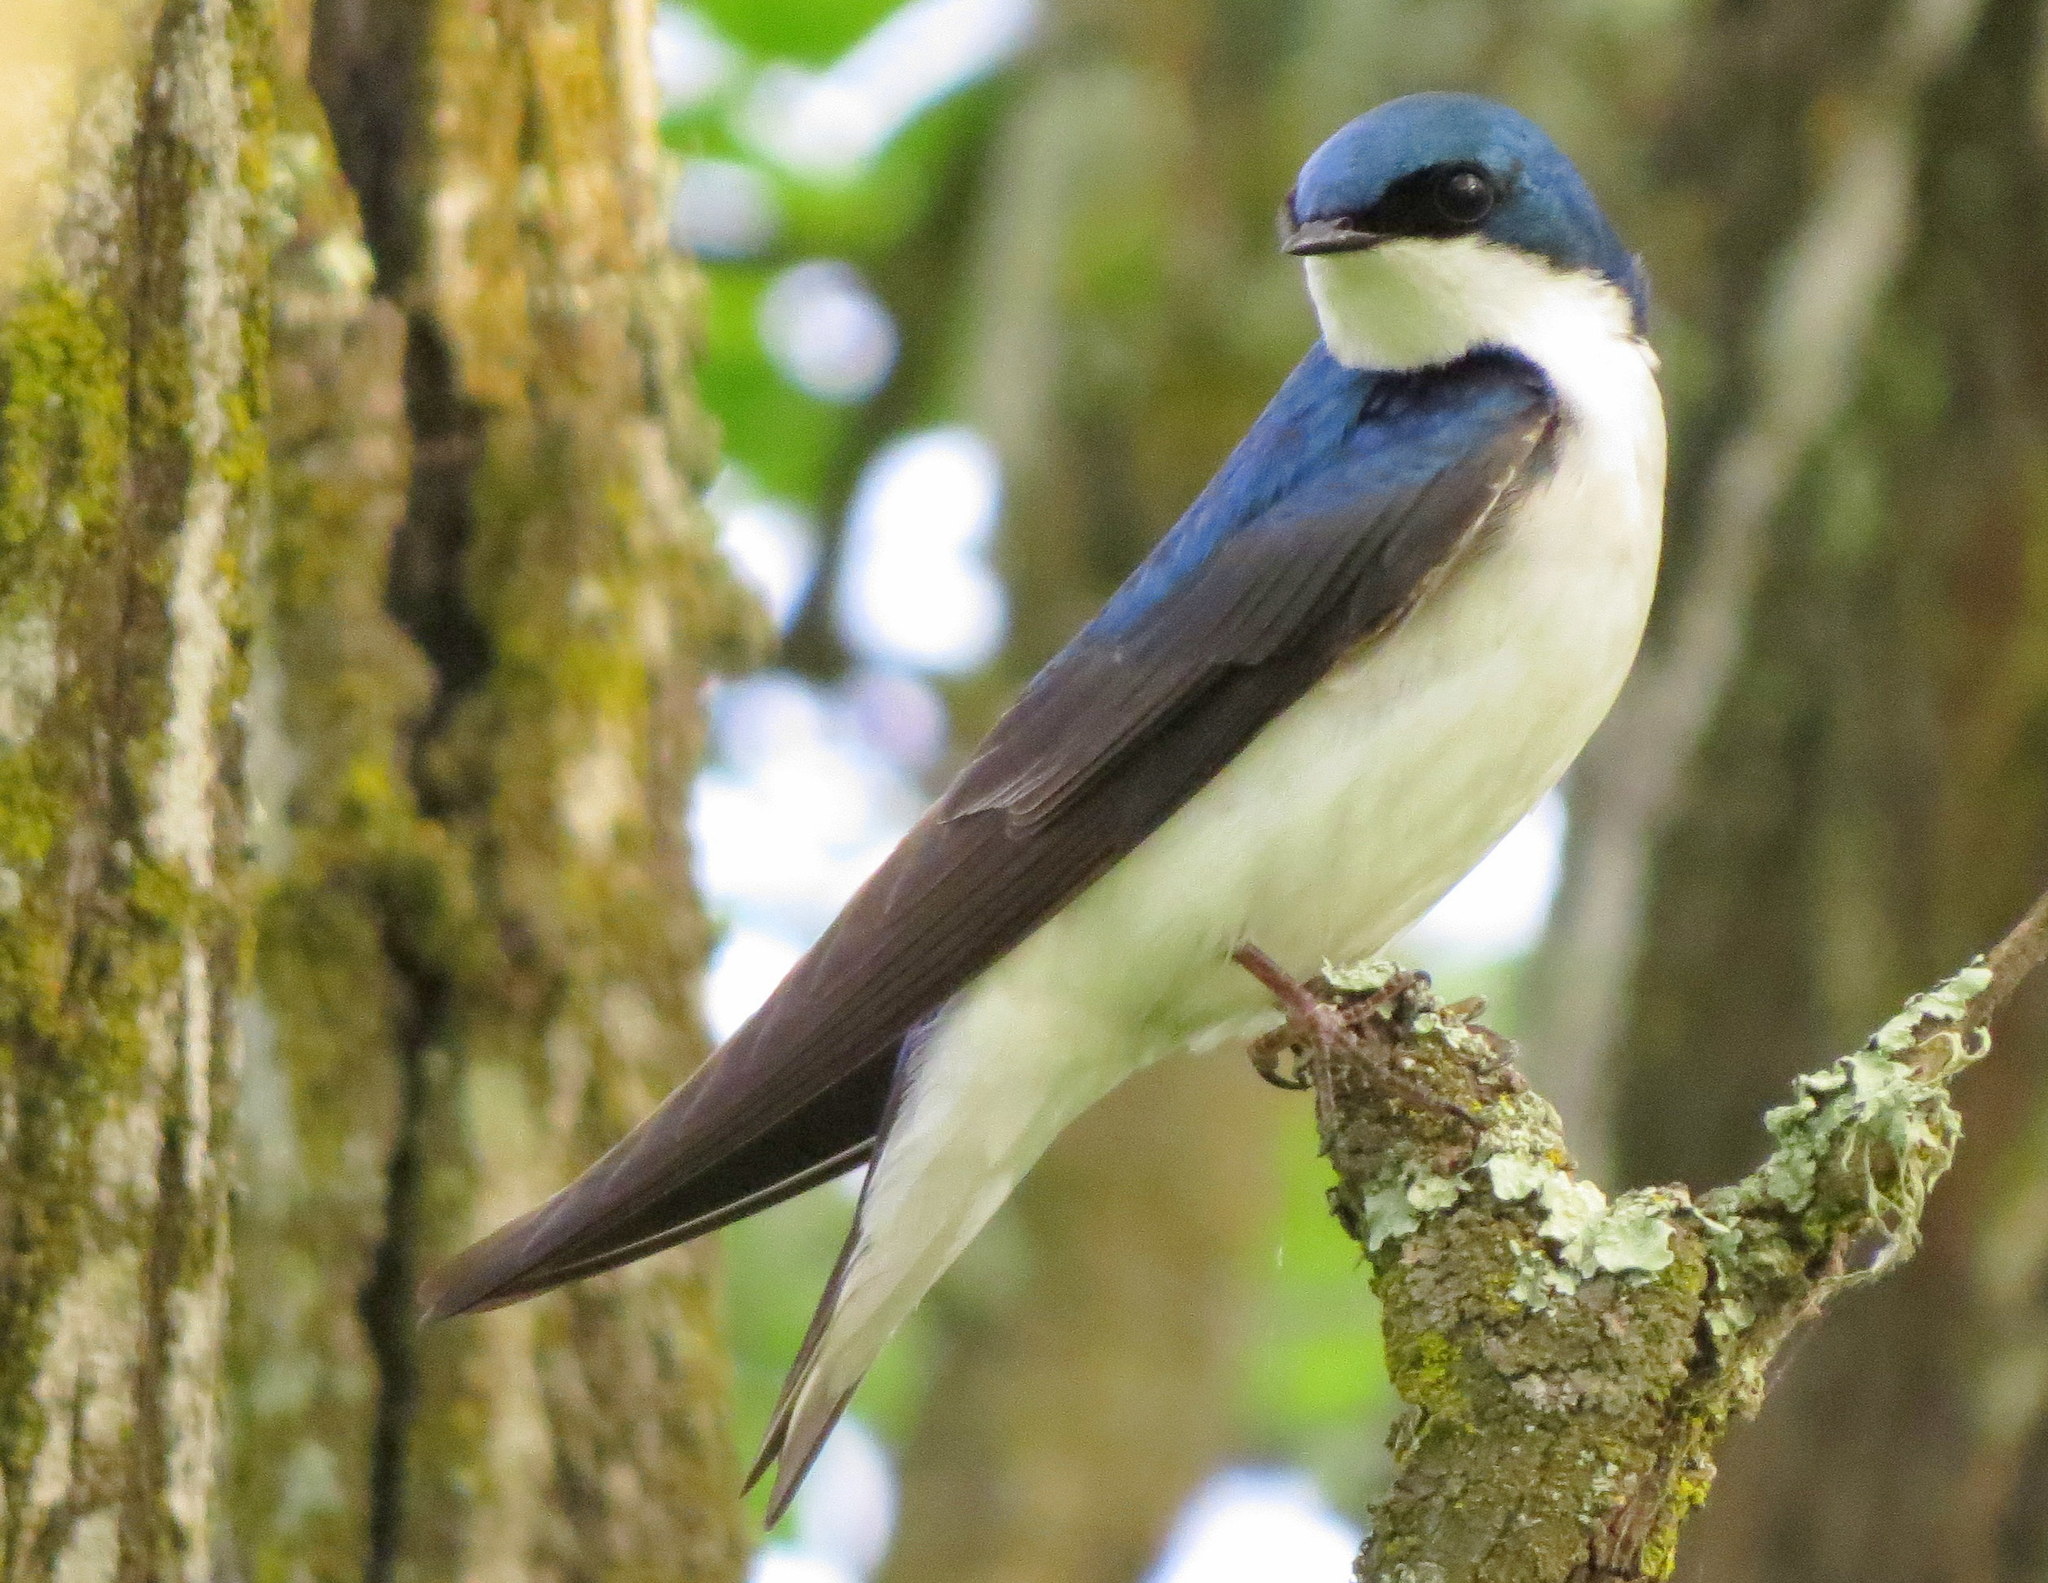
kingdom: Animalia
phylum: Chordata
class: Aves
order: Passeriformes
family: Hirundinidae
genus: Tachycineta
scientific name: Tachycineta bicolor
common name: Tree swallow
